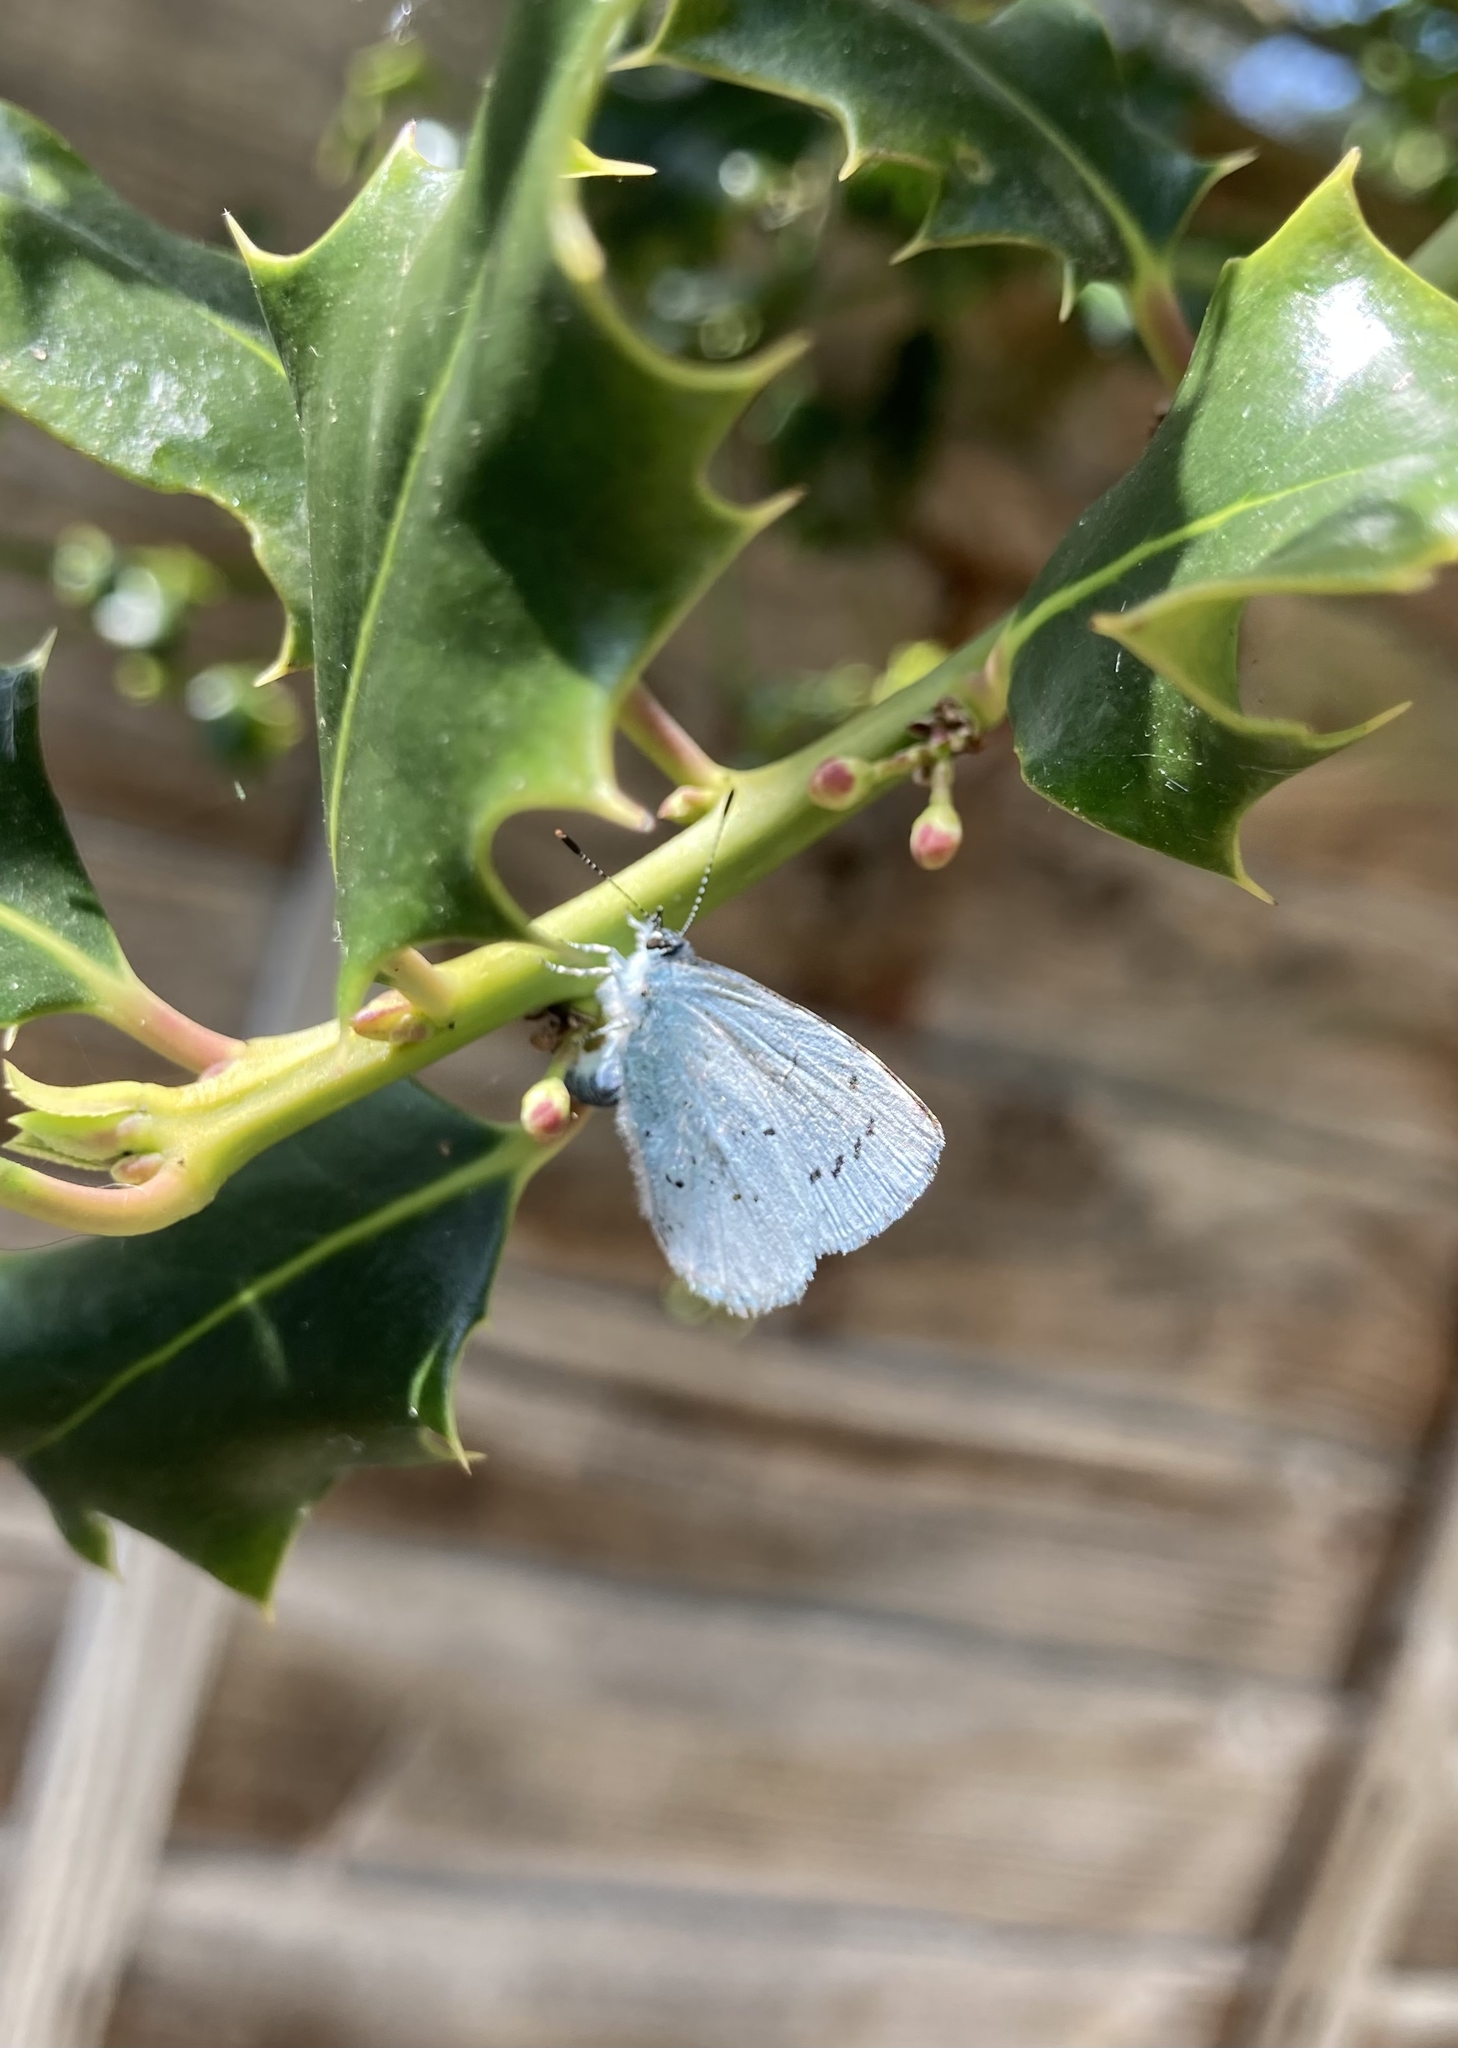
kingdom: Animalia
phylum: Arthropoda
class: Insecta
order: Lepidoptera
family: Lycaenidae
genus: Celastrina
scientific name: Celastrina argiolus
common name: Holly blue
